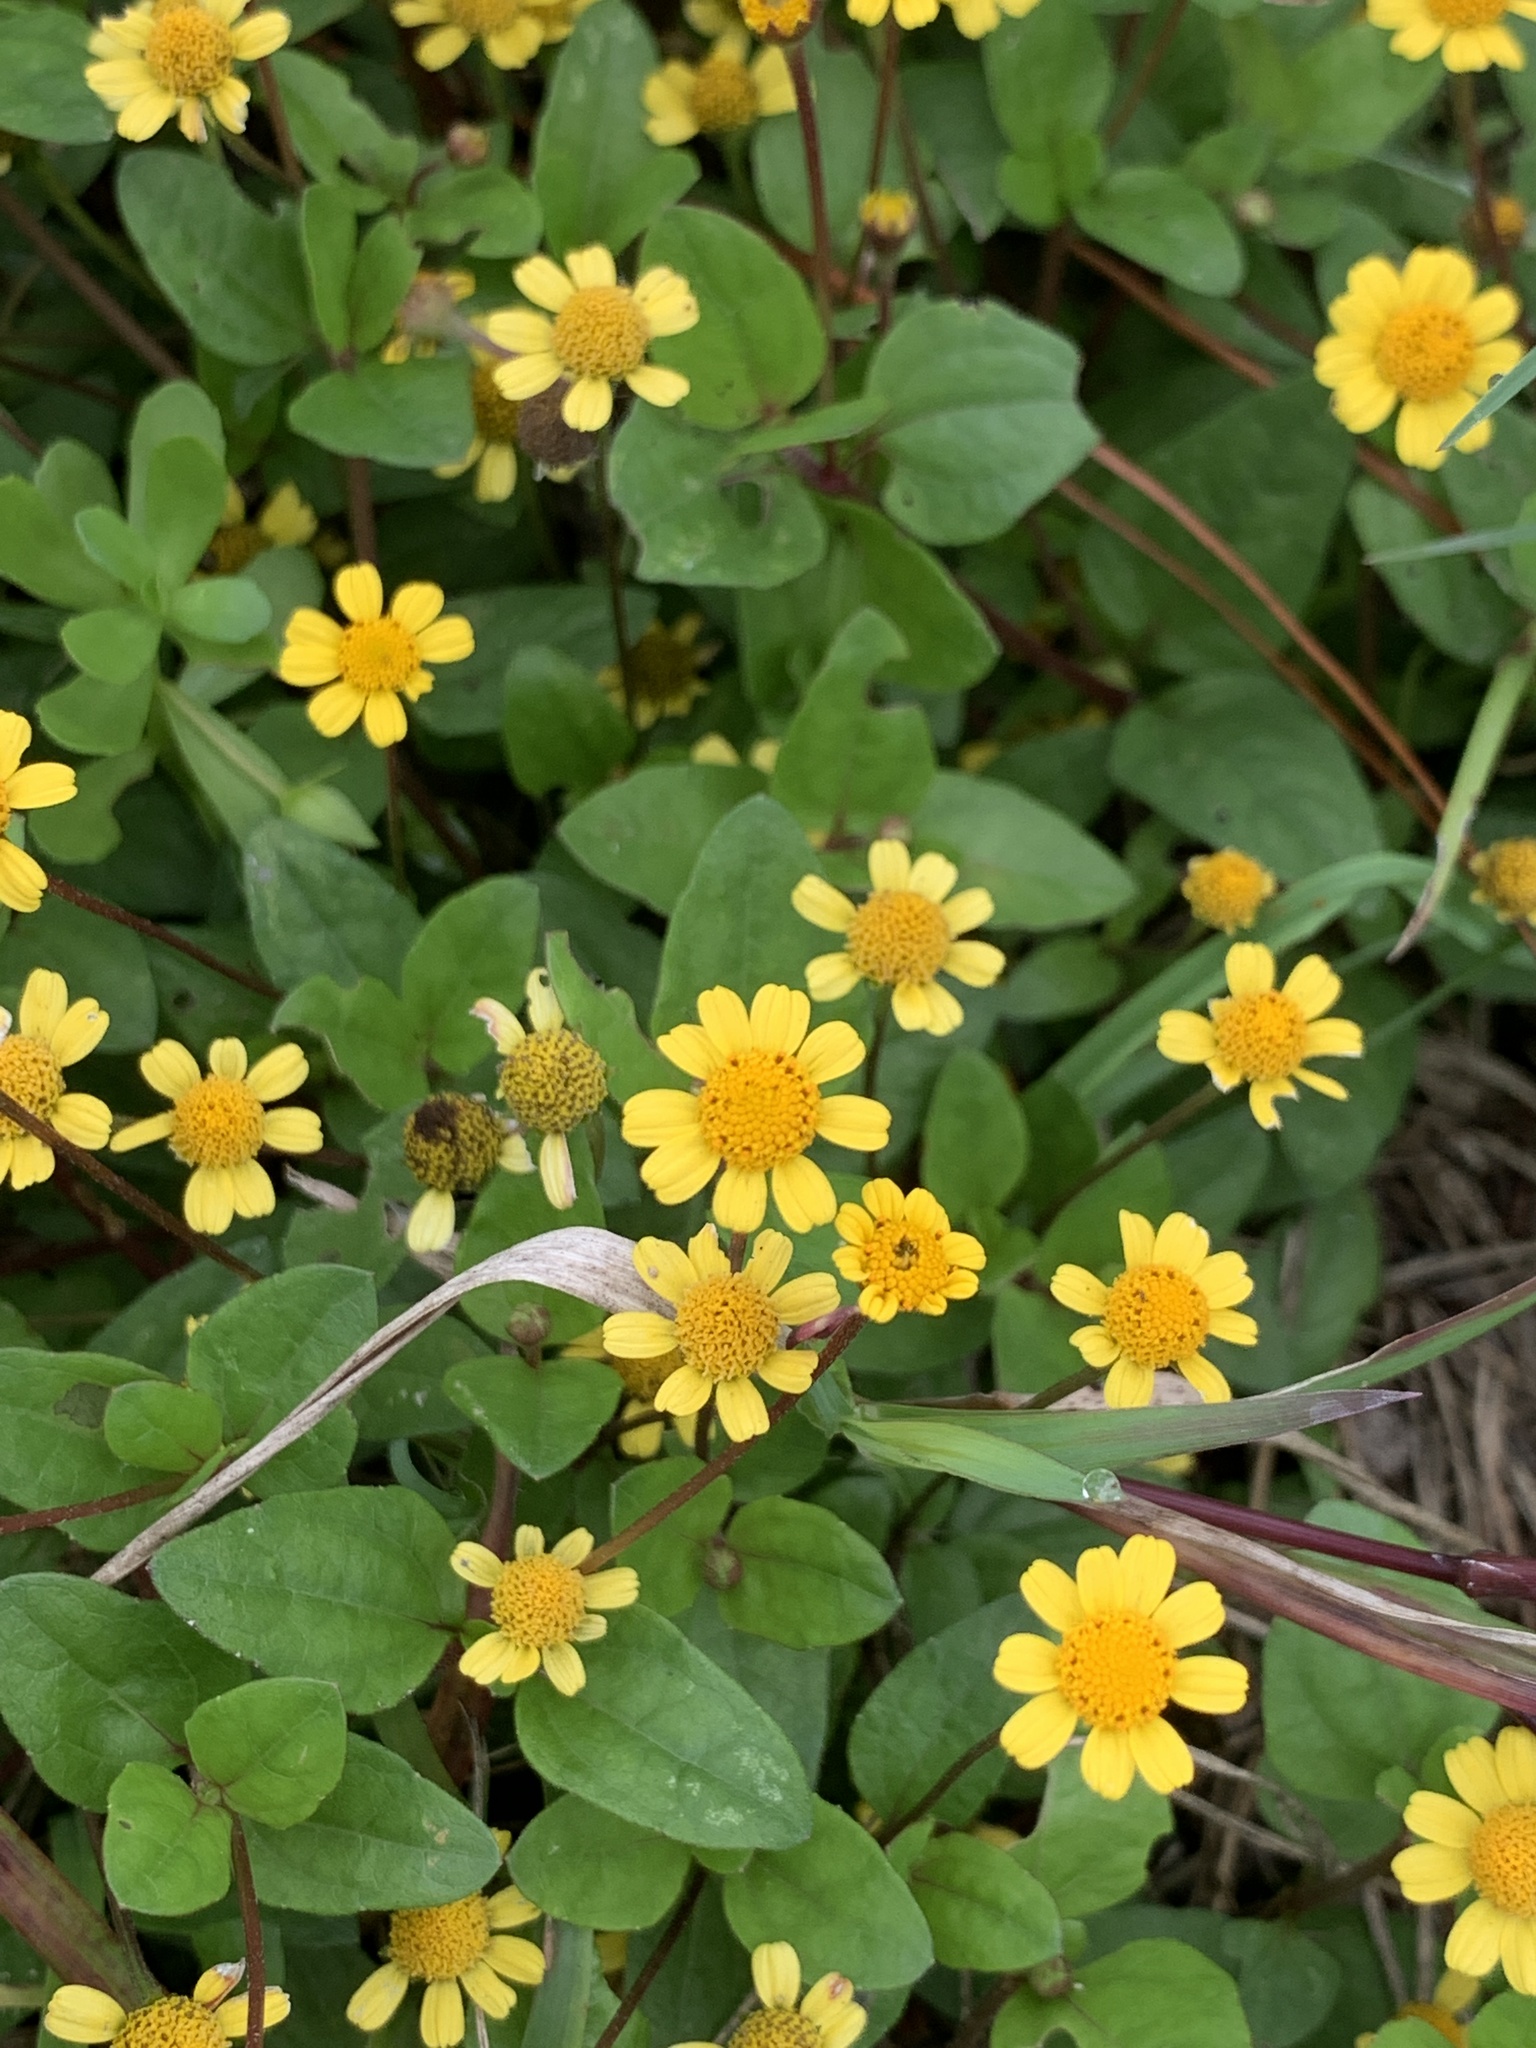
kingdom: Plantae
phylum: Tracheophyta
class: Magnoliopsida
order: Asterales
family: Asteraceae
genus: Acmella
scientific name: Acmella repens
